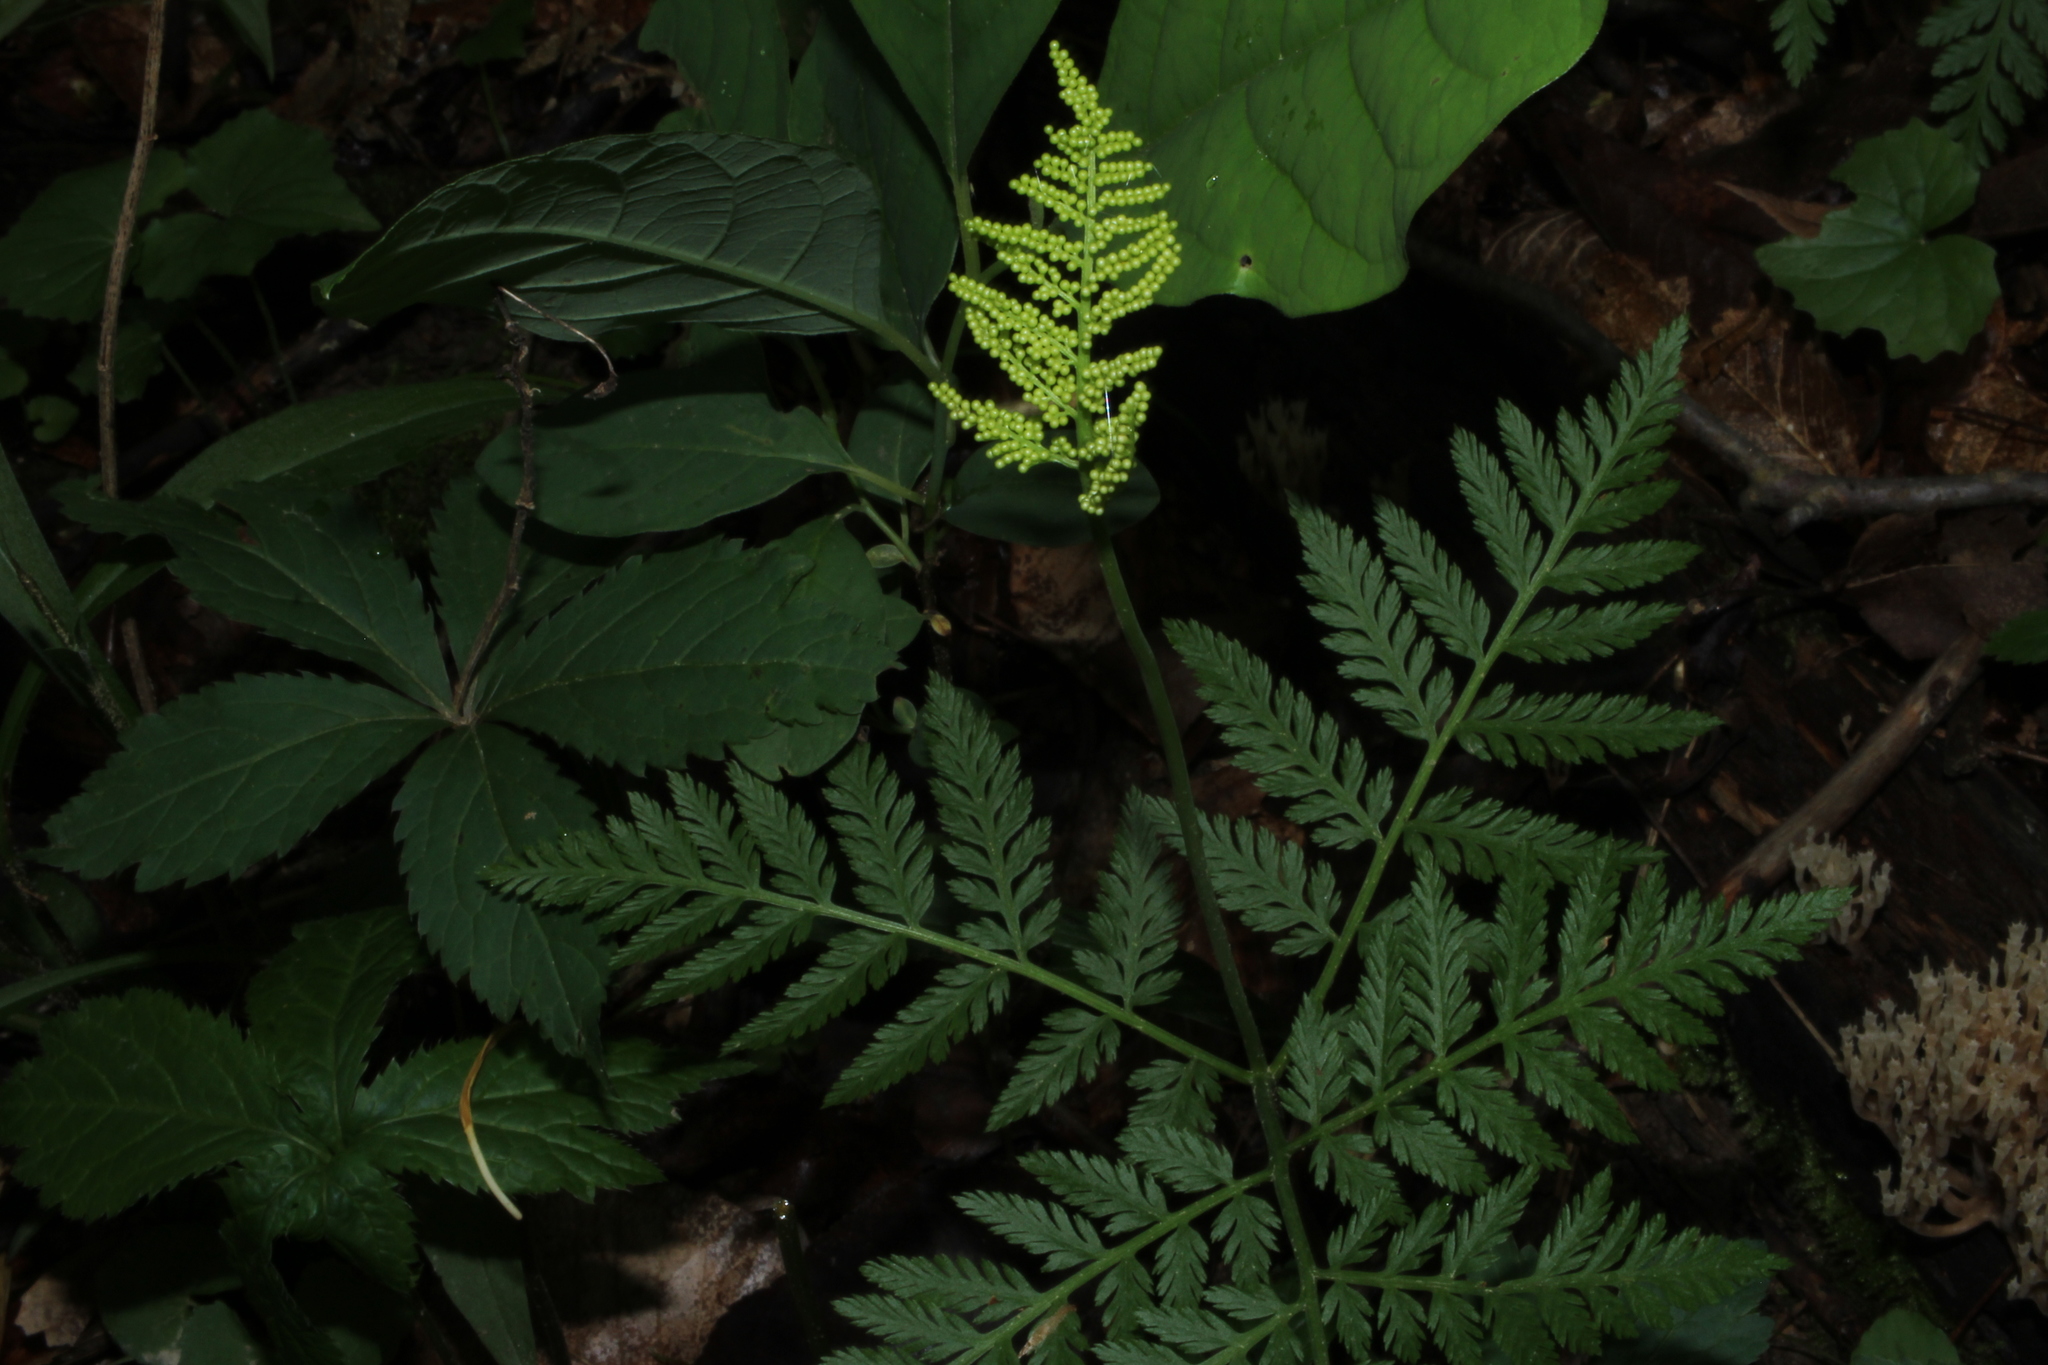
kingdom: Plantae
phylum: Tracheophyta
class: Polypodiopsida
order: Ophioglossales
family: Ophioglossaceae
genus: Botrypus
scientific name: Botrypus virginianus
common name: Common grapefern
